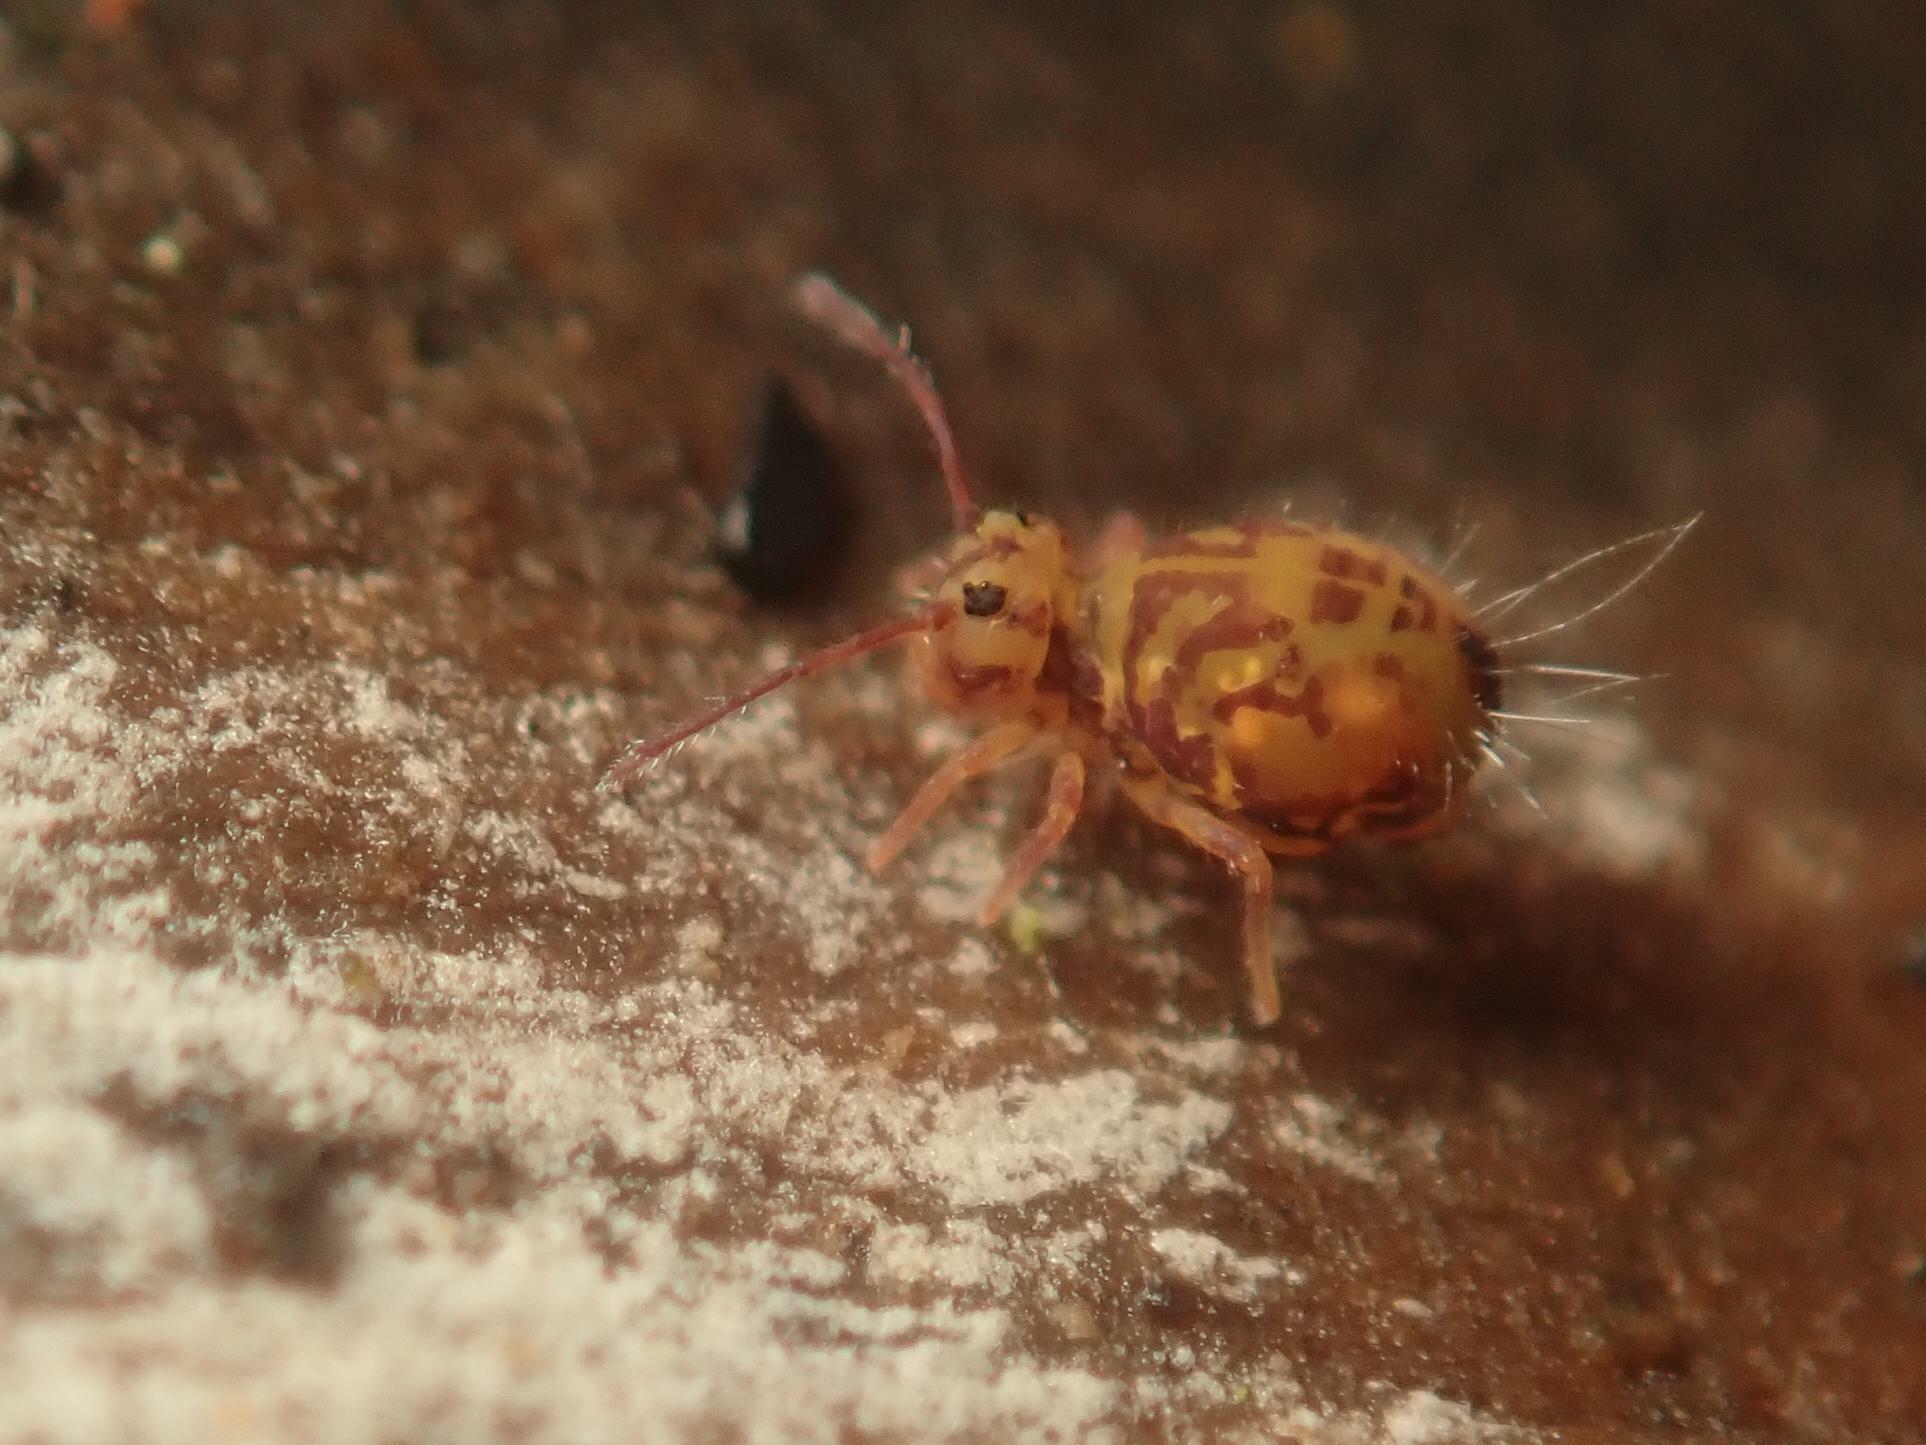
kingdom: Animalia
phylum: Arthropoda
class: Collembola
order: Symphypleona
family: Dicyrtomidae
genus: Dicyrtomina
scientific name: Dicyrtomina ornata
